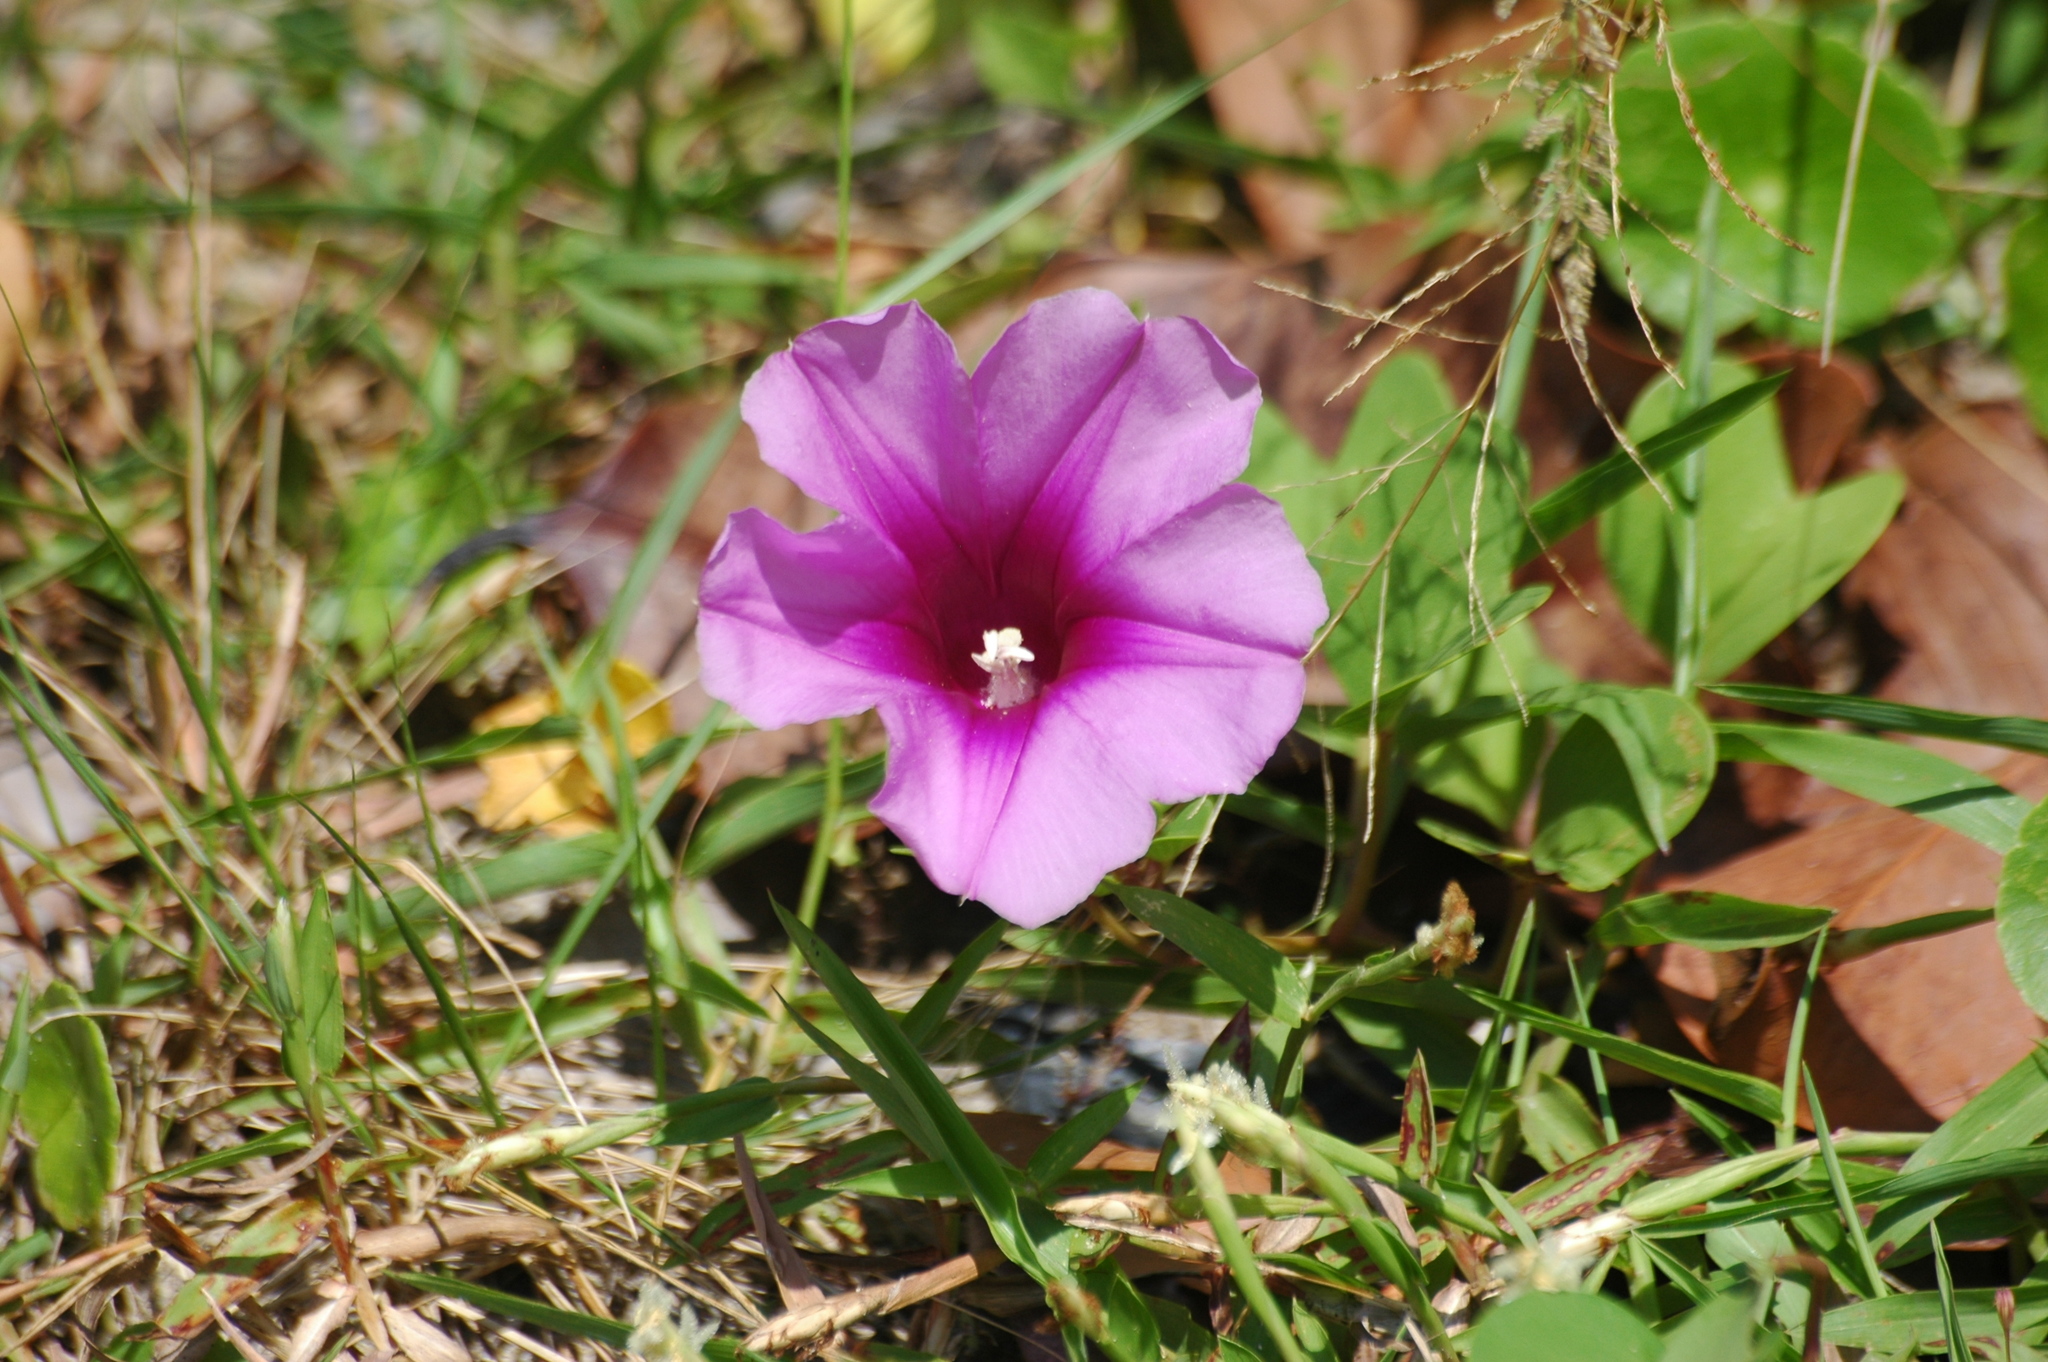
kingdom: Plantae
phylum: Tracheophyta
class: Magnoliopsida
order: Solanales
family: Convolvulaceae
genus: Ipomoea
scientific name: Ipomoea pes-caprae
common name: Beach morning glory
